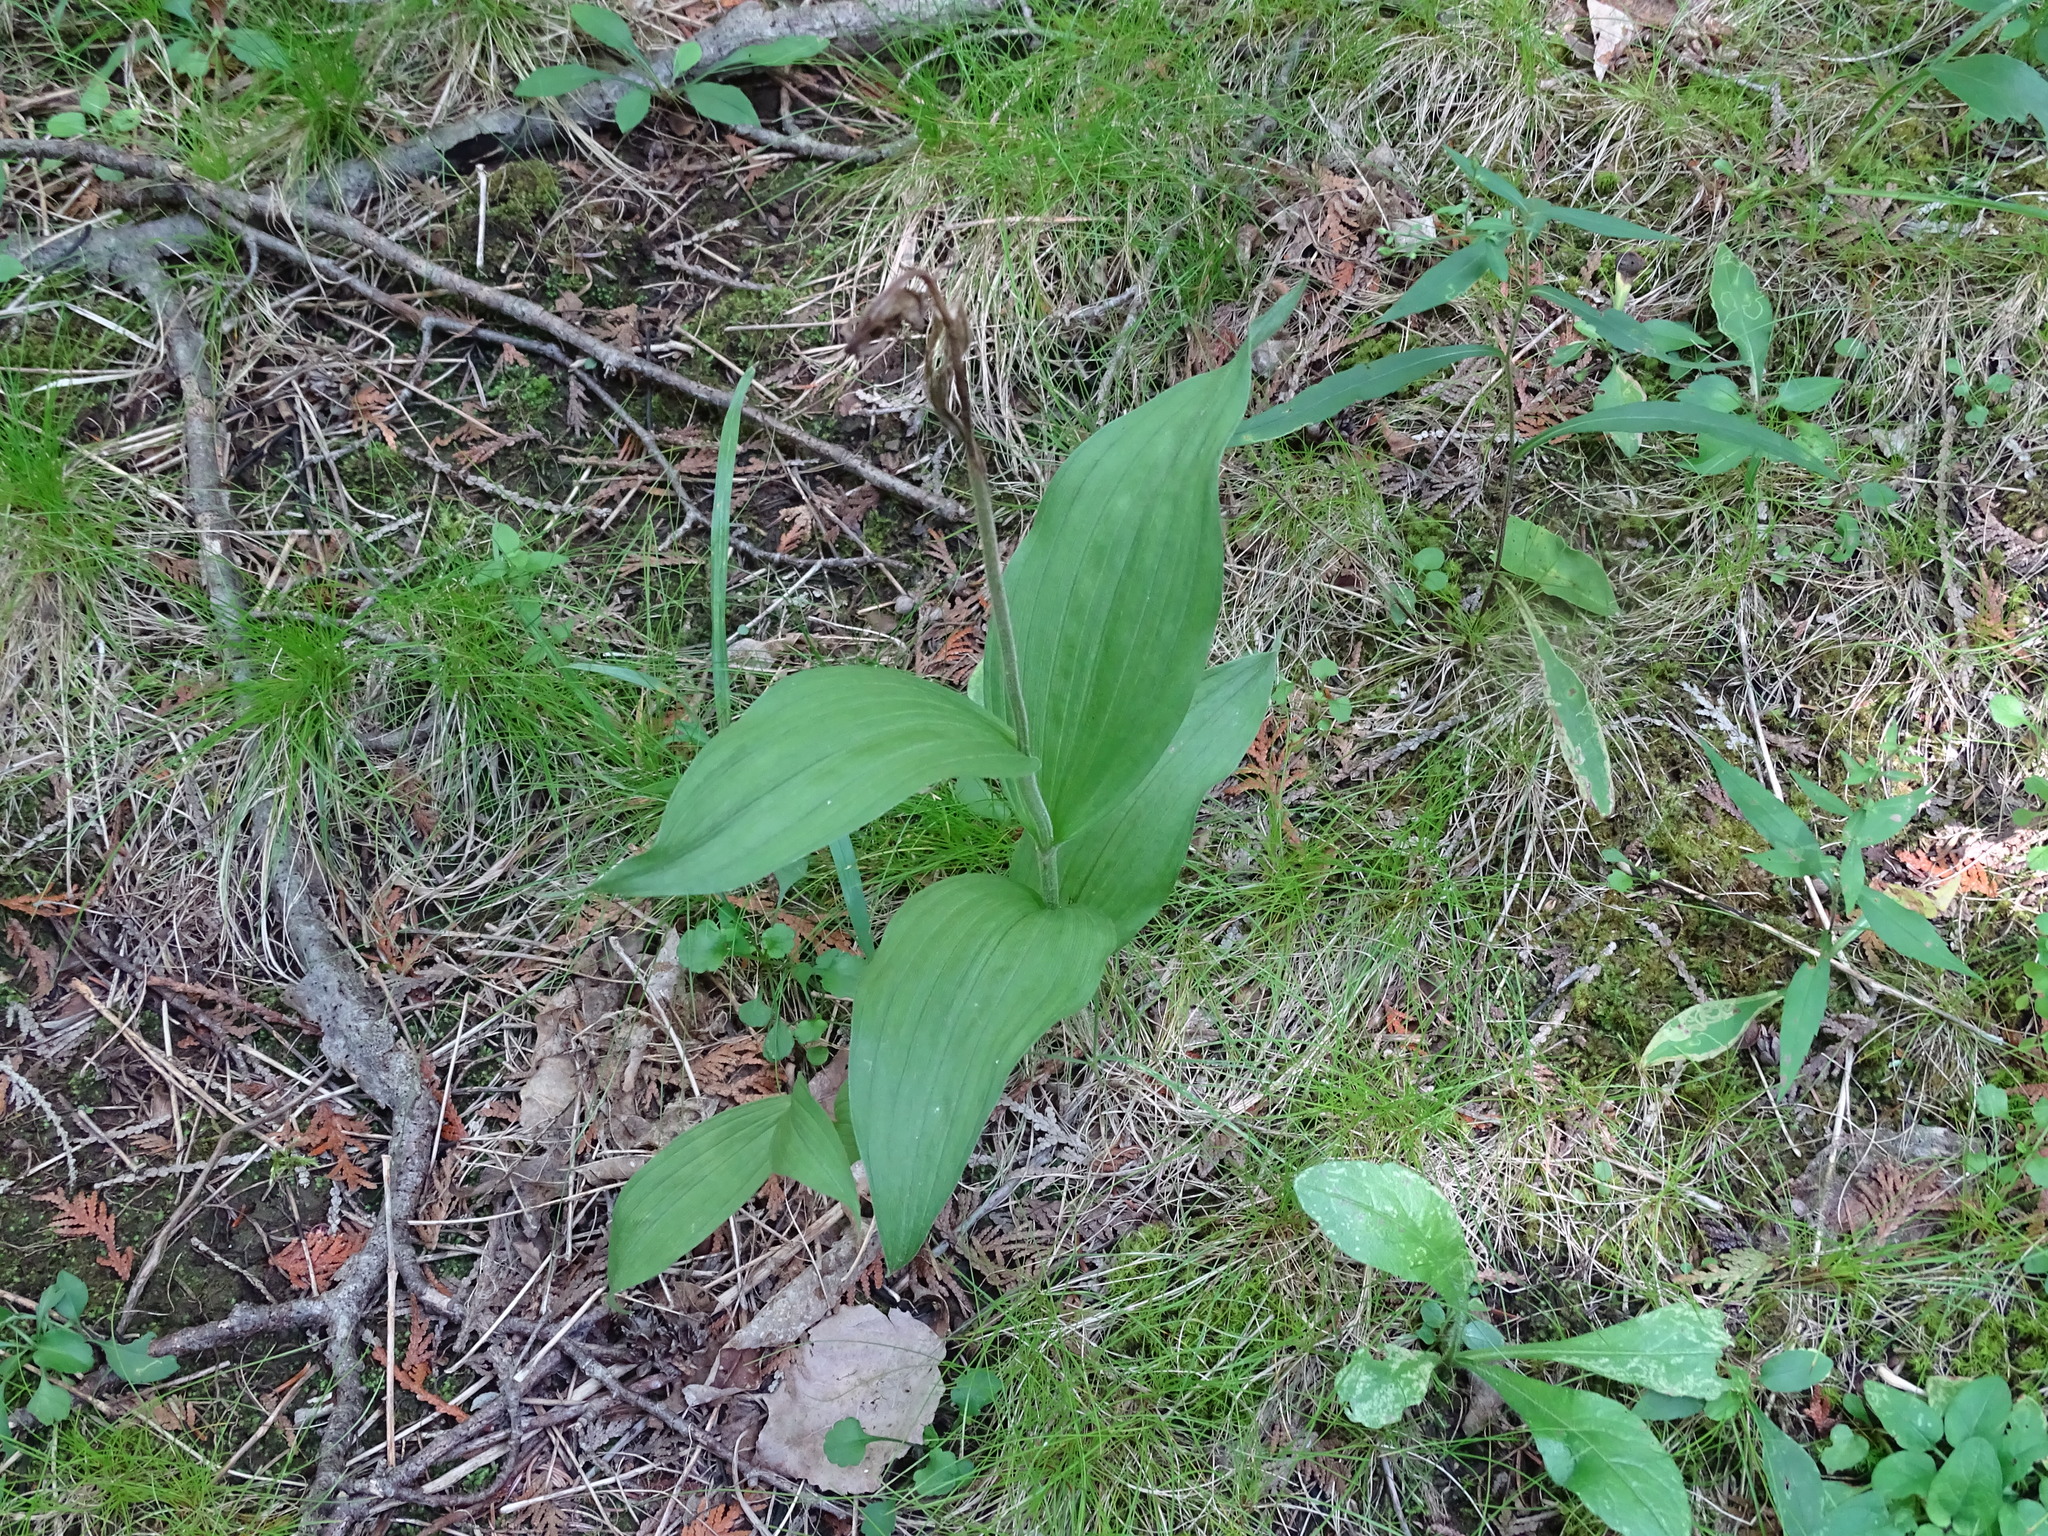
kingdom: Plantae
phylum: Tracheophyta
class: Liliopsida
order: Asparagales
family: Orchidaceae
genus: Cypripedium
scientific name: Cypripedium parviflorum
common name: American yellow lady's-slipper
